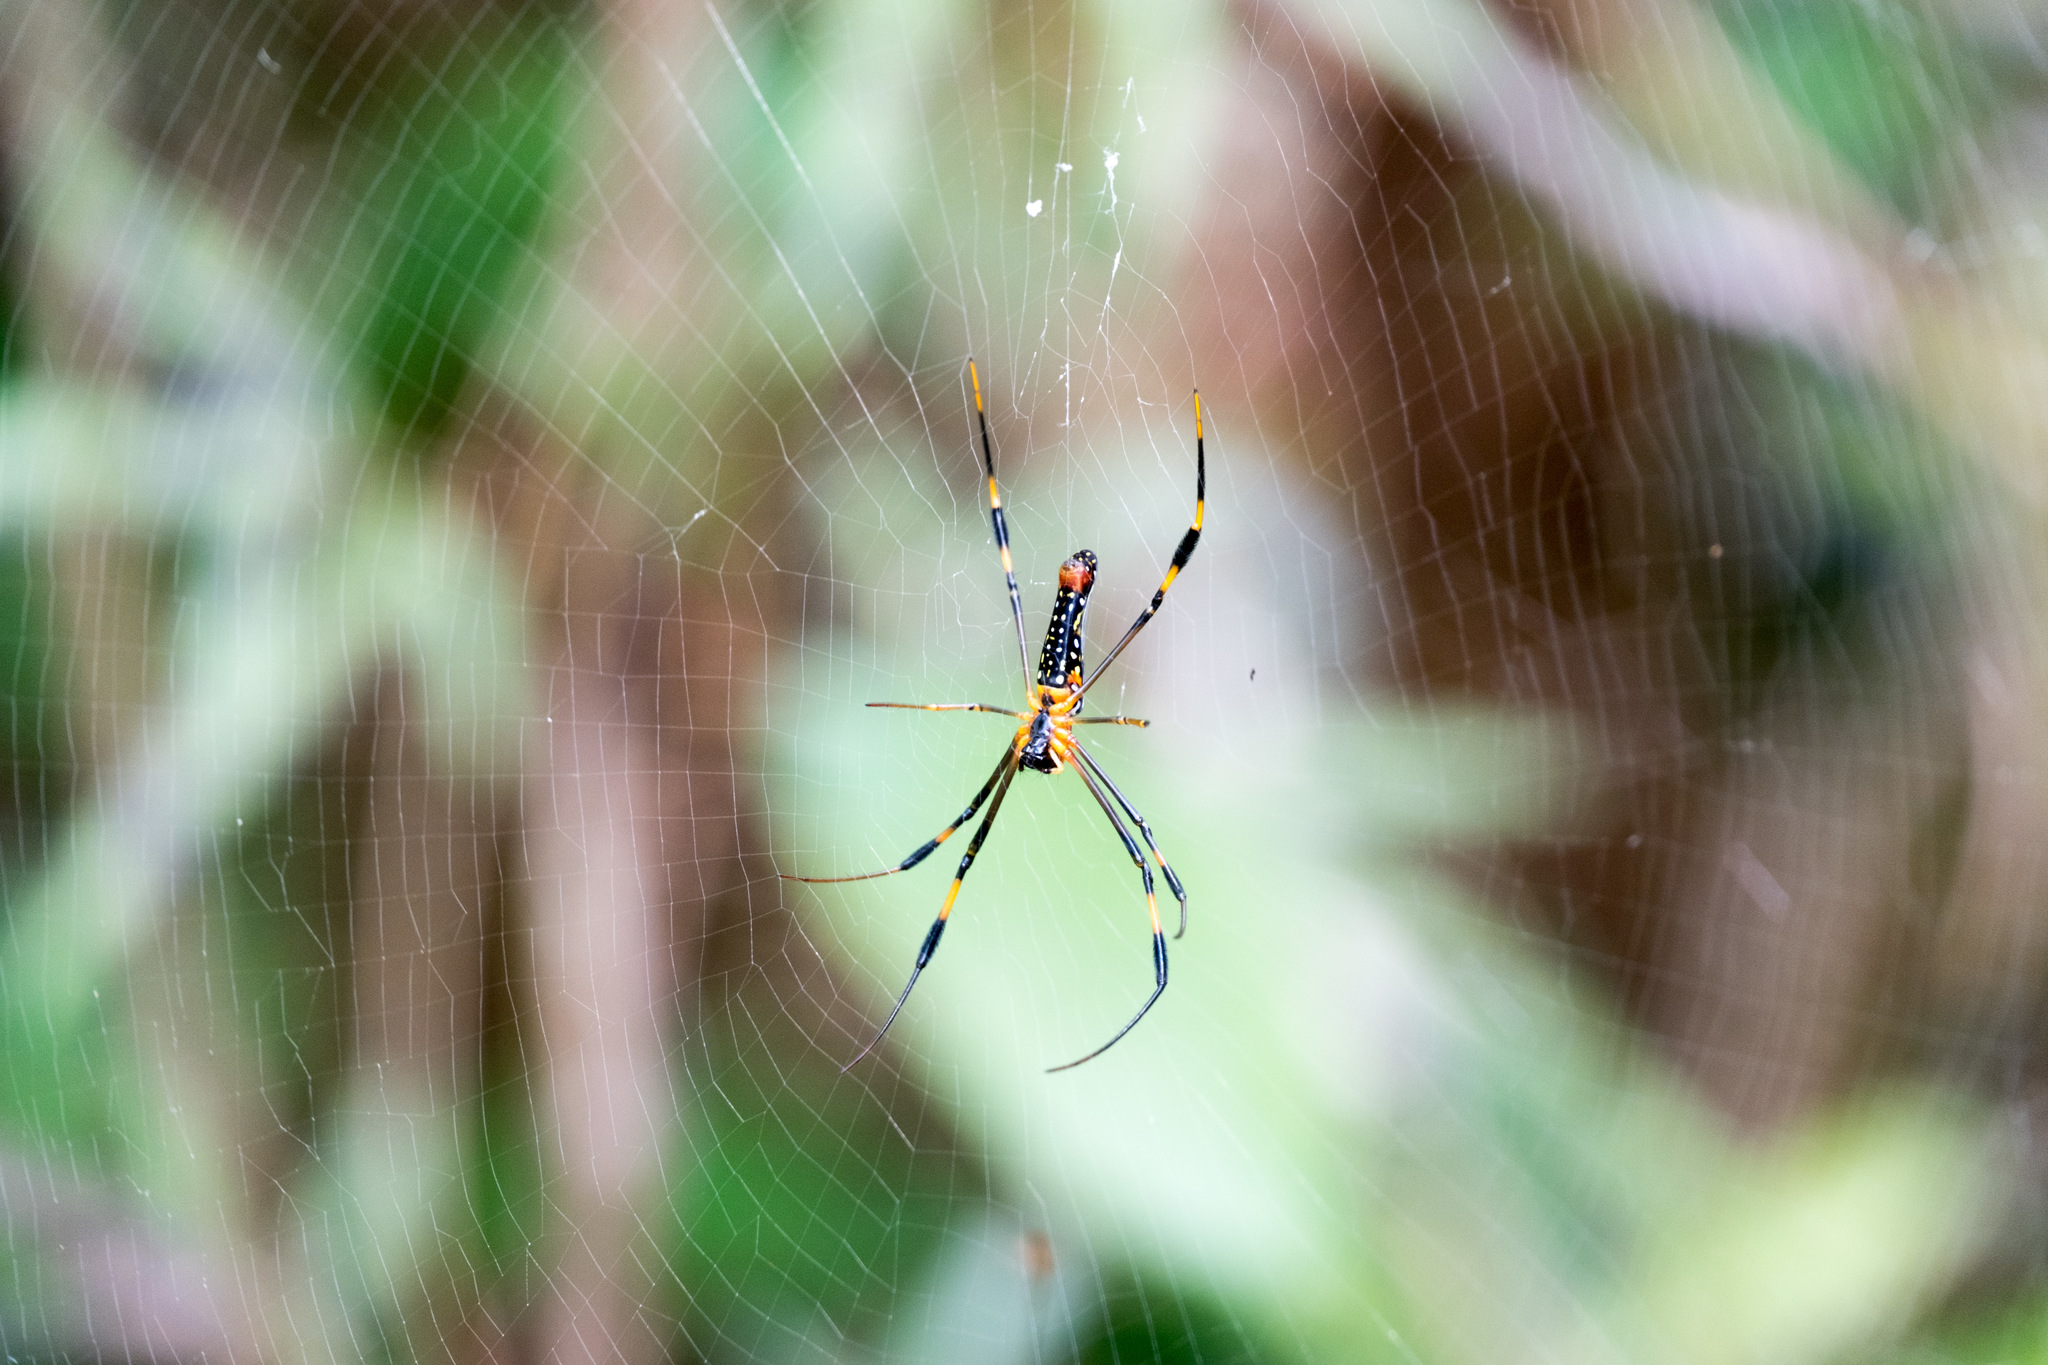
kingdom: Animalia
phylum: Arthropoda
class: Arachnida
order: Araneae
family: Araneidae
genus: Nephila
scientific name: Nephila pilipes
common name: Giant golden orb weaver
